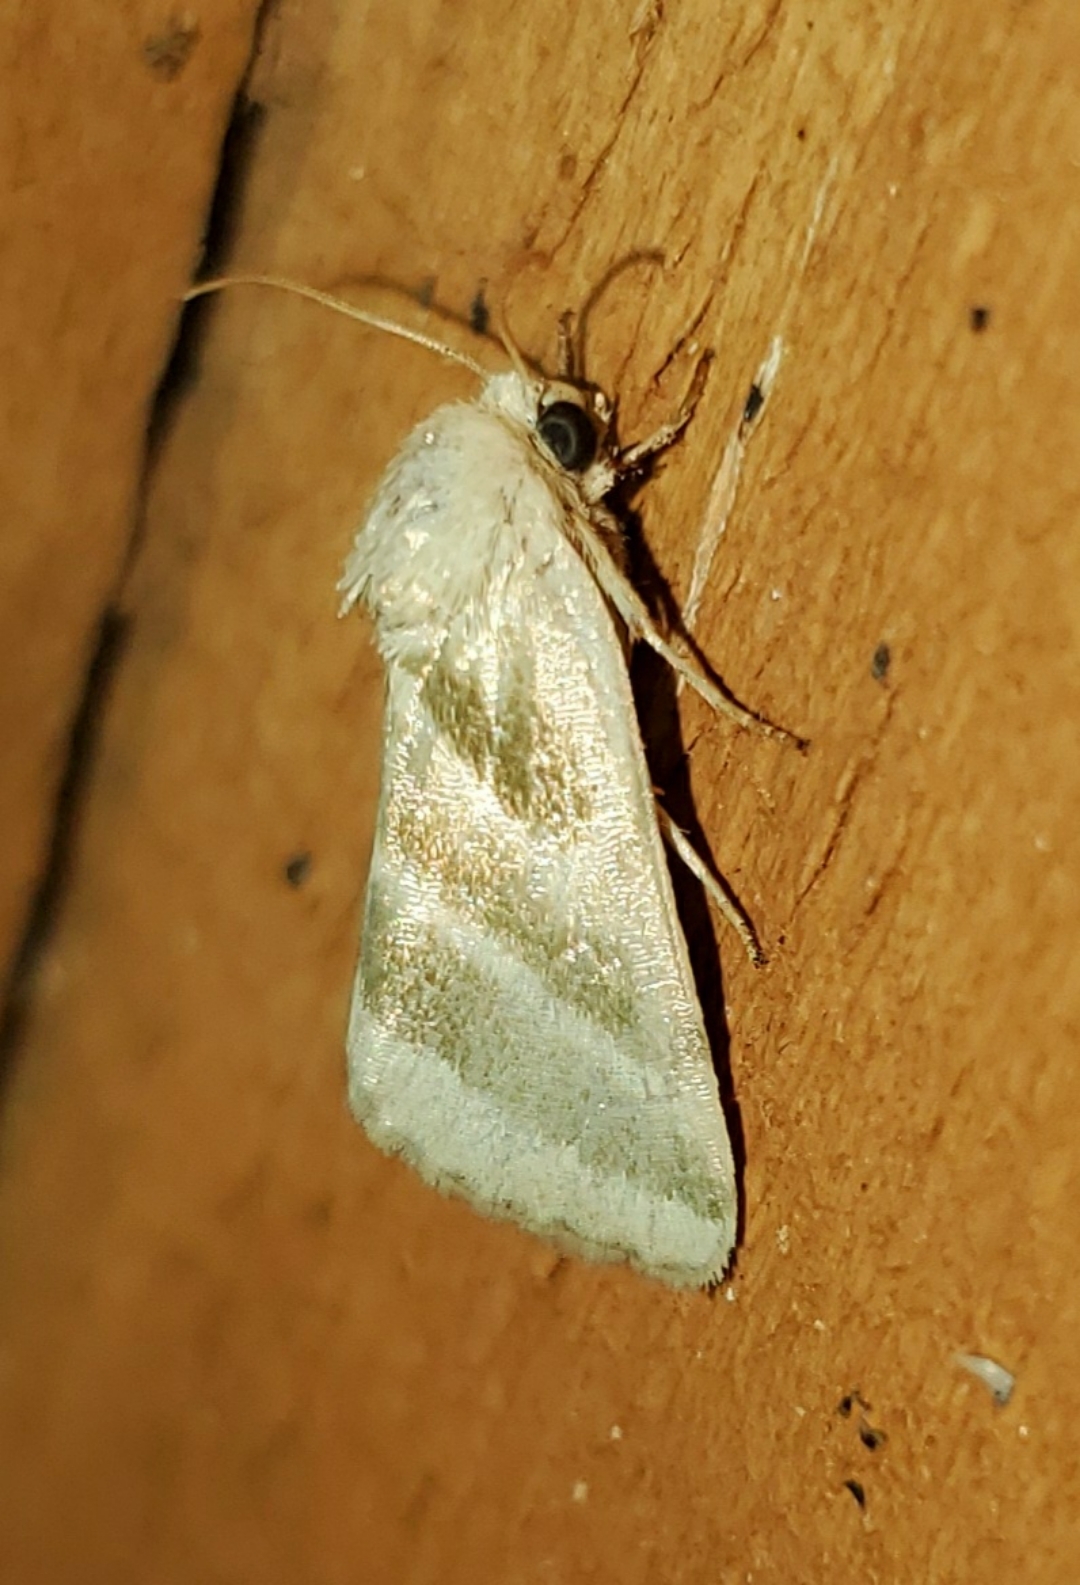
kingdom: Animalia
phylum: Arthropoda
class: Insecta
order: Lepidoptera
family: Noctuidae
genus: Schinia
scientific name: Schinia trifascia
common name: Three-lined flower moth
